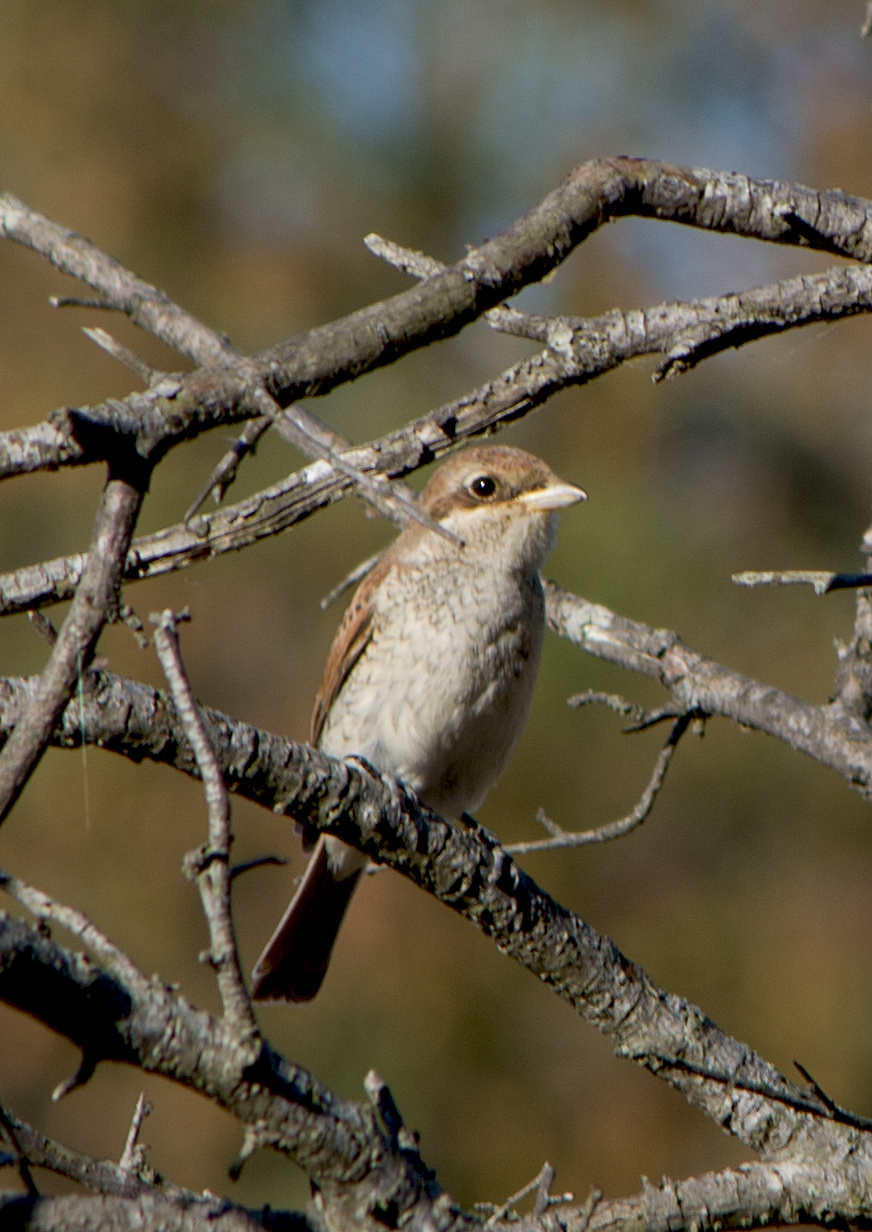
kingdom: Animalia
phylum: Chordata
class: Aves
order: Passeriformes
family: Laniidae
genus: Lanius
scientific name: Lanius collurio
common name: Red-backed shrike
